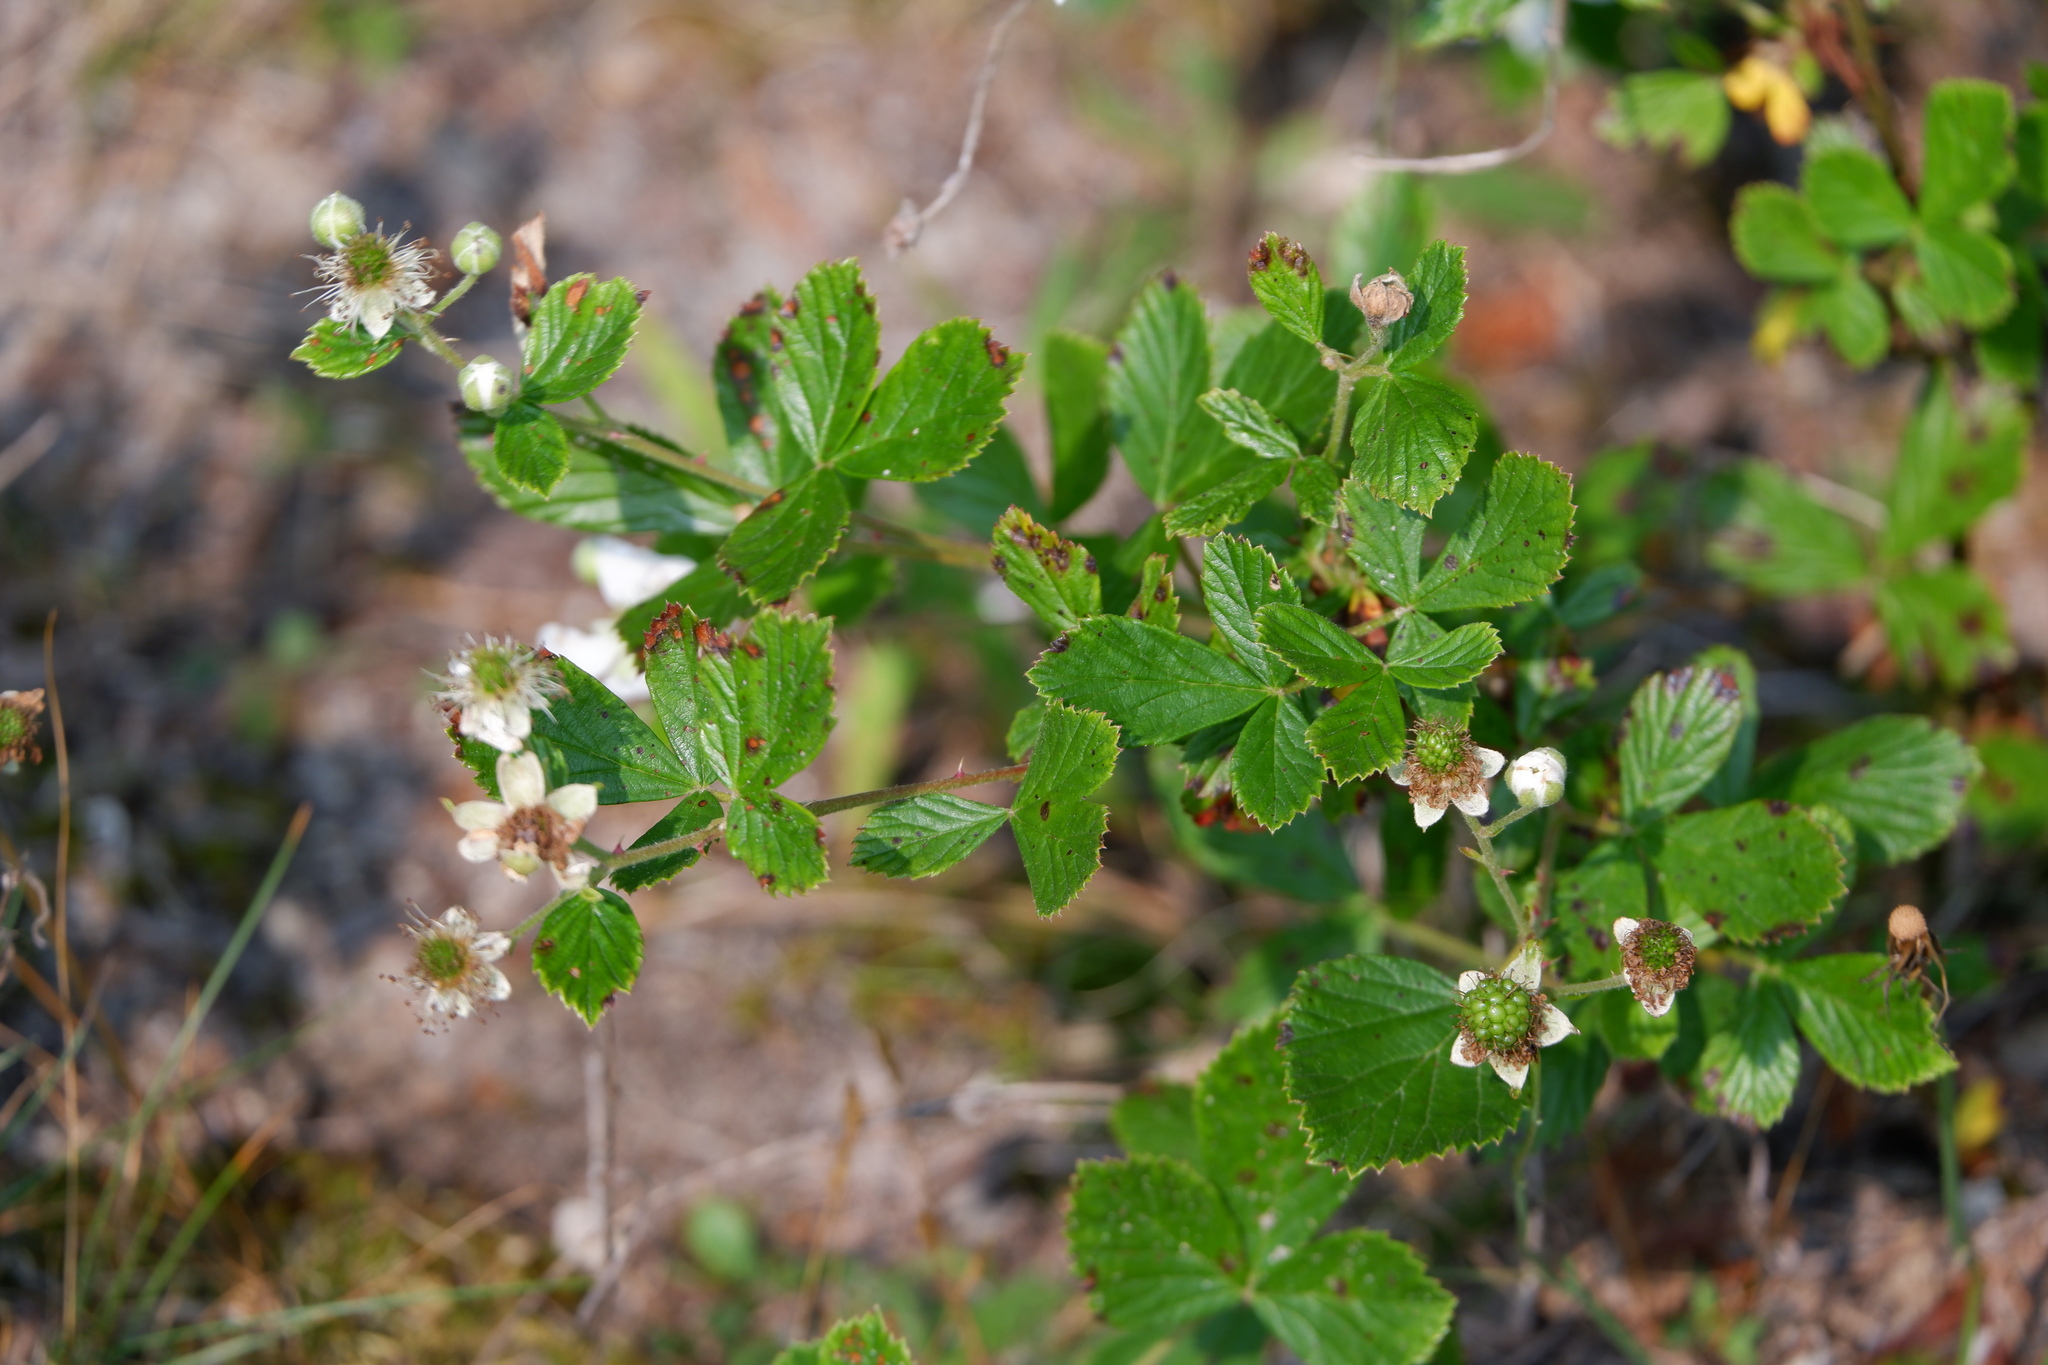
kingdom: Plantae
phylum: Tracheophyta
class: Magnoliopsida
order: Rosales
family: Rosaceae
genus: Rubus
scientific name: Rubus cuneifolius
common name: American bramble
